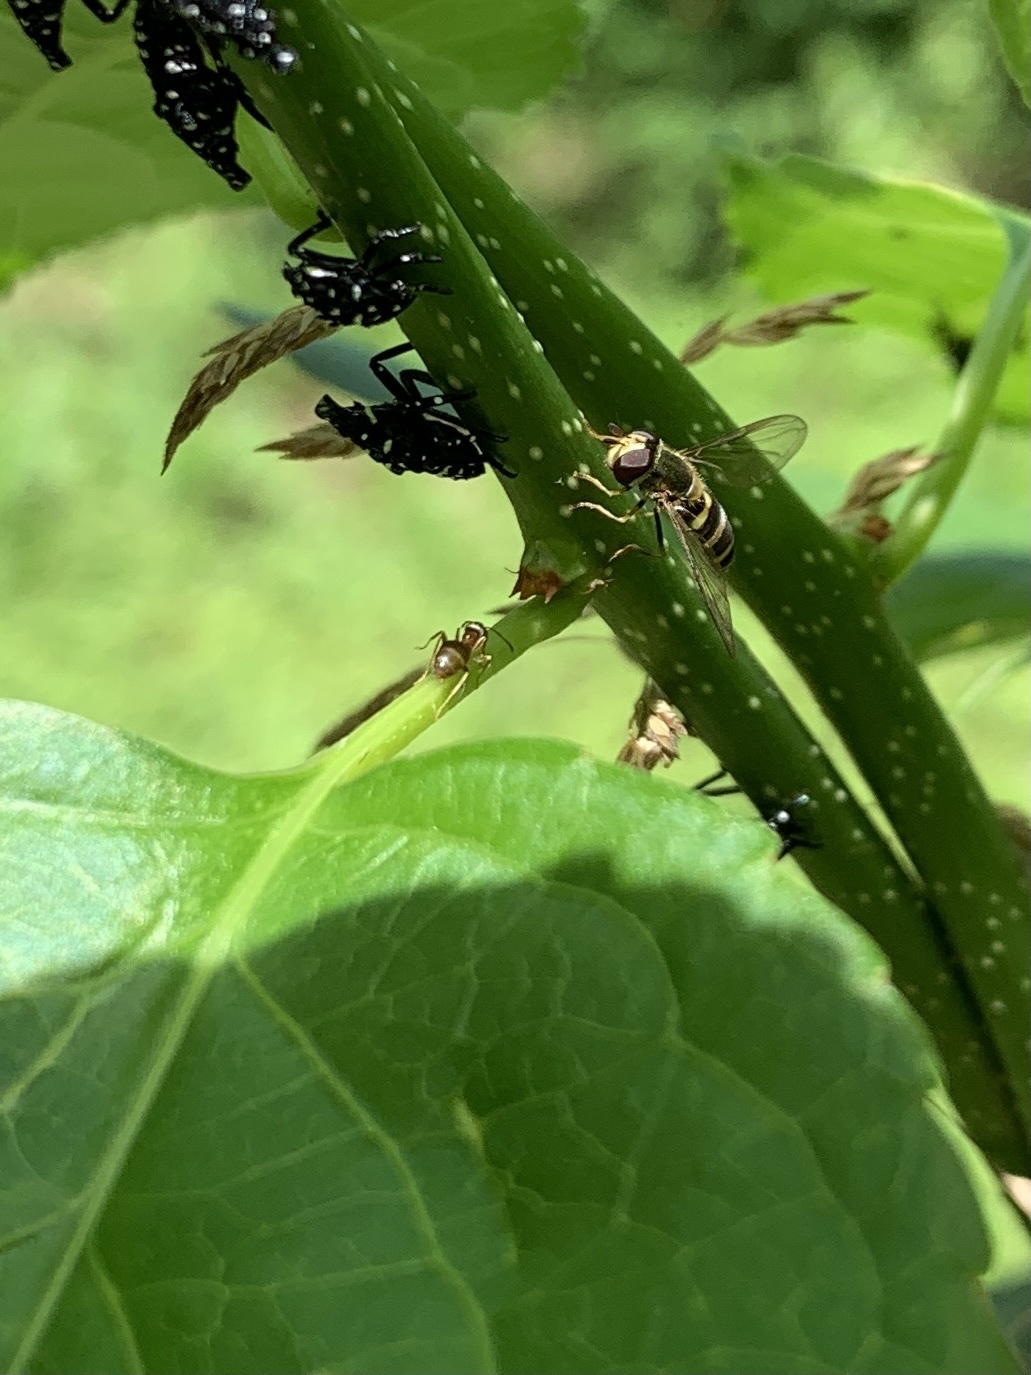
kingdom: Animalia
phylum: Arthropoda
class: Insecta
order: Diptera
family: Syrphidae
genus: Eupeodes
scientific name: Eupeodes
